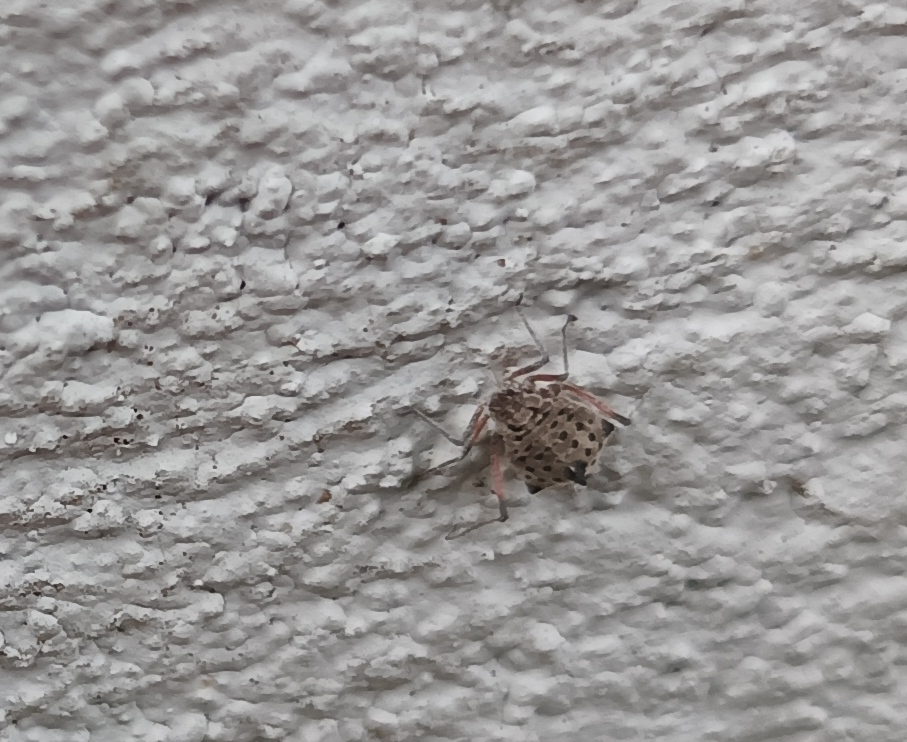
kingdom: Animalia
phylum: Arthropoda
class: Insecta
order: Hemiptera
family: Aphididae
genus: Tuberolachnus
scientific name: Tuberolachnus salignus
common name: Giant willow aphid
